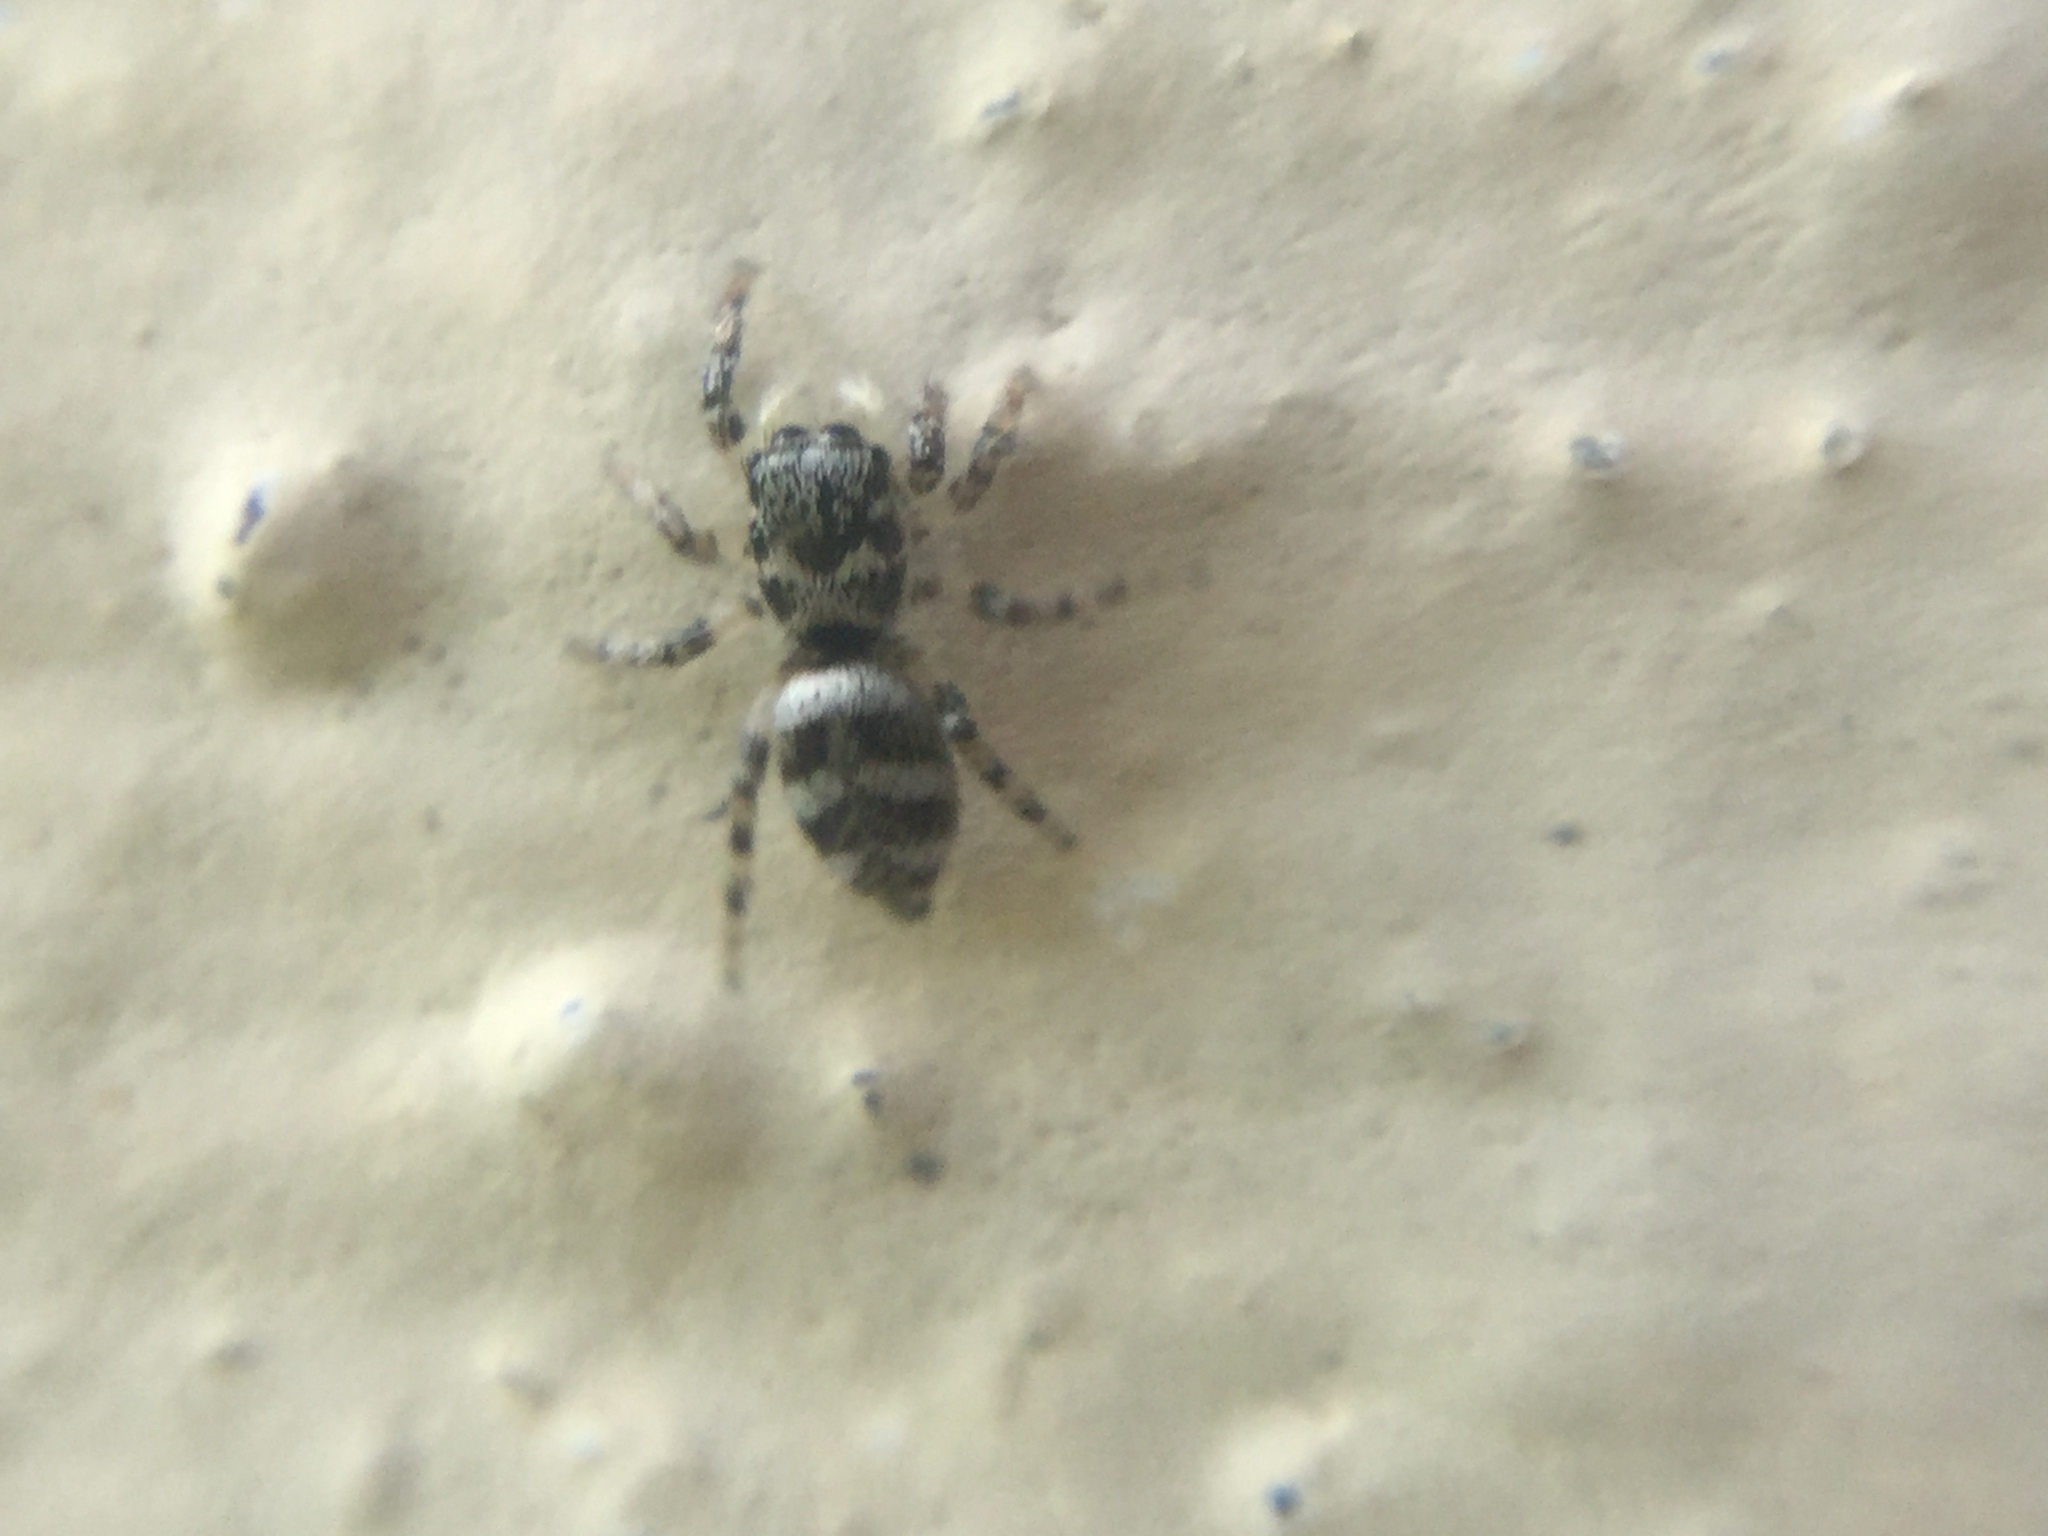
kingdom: Animalia
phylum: Arthropoda
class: Arachnida
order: Araneae
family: Salticidae
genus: Salticus
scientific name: Salticus scenicus
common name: Zebra jumper
